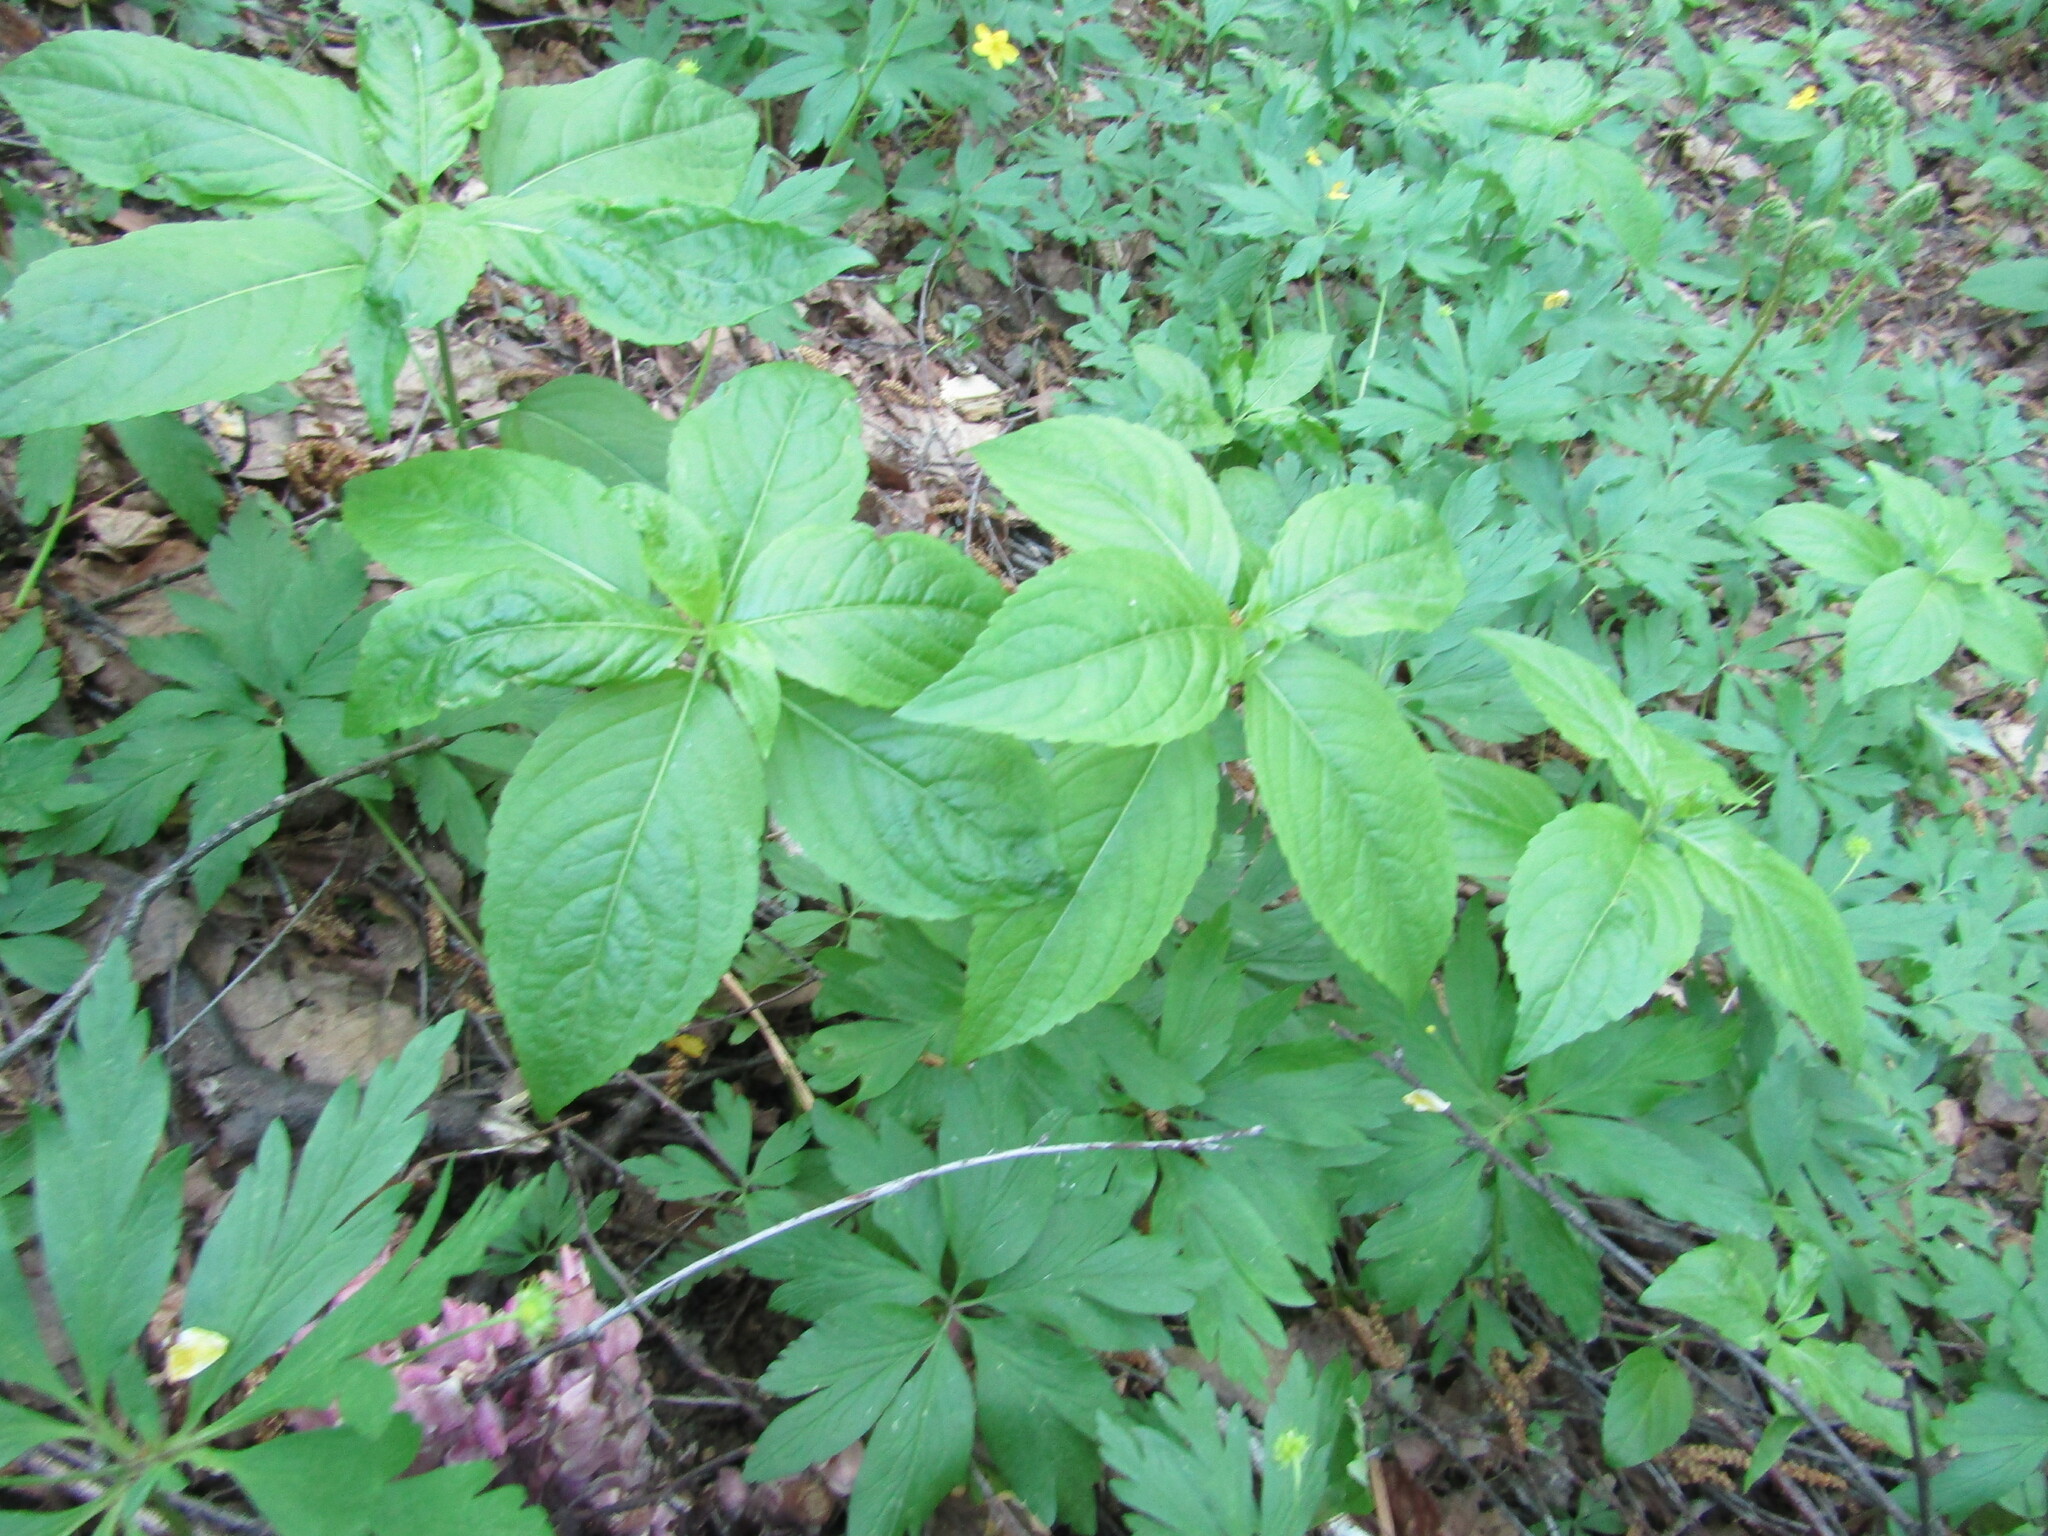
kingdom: Plantae
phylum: Tracheophyta
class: Magnoliopsida
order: Malpighiales
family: Euphorbiaceae
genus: Mercurialis
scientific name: Mercurialis perennis
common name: Dog mercury
